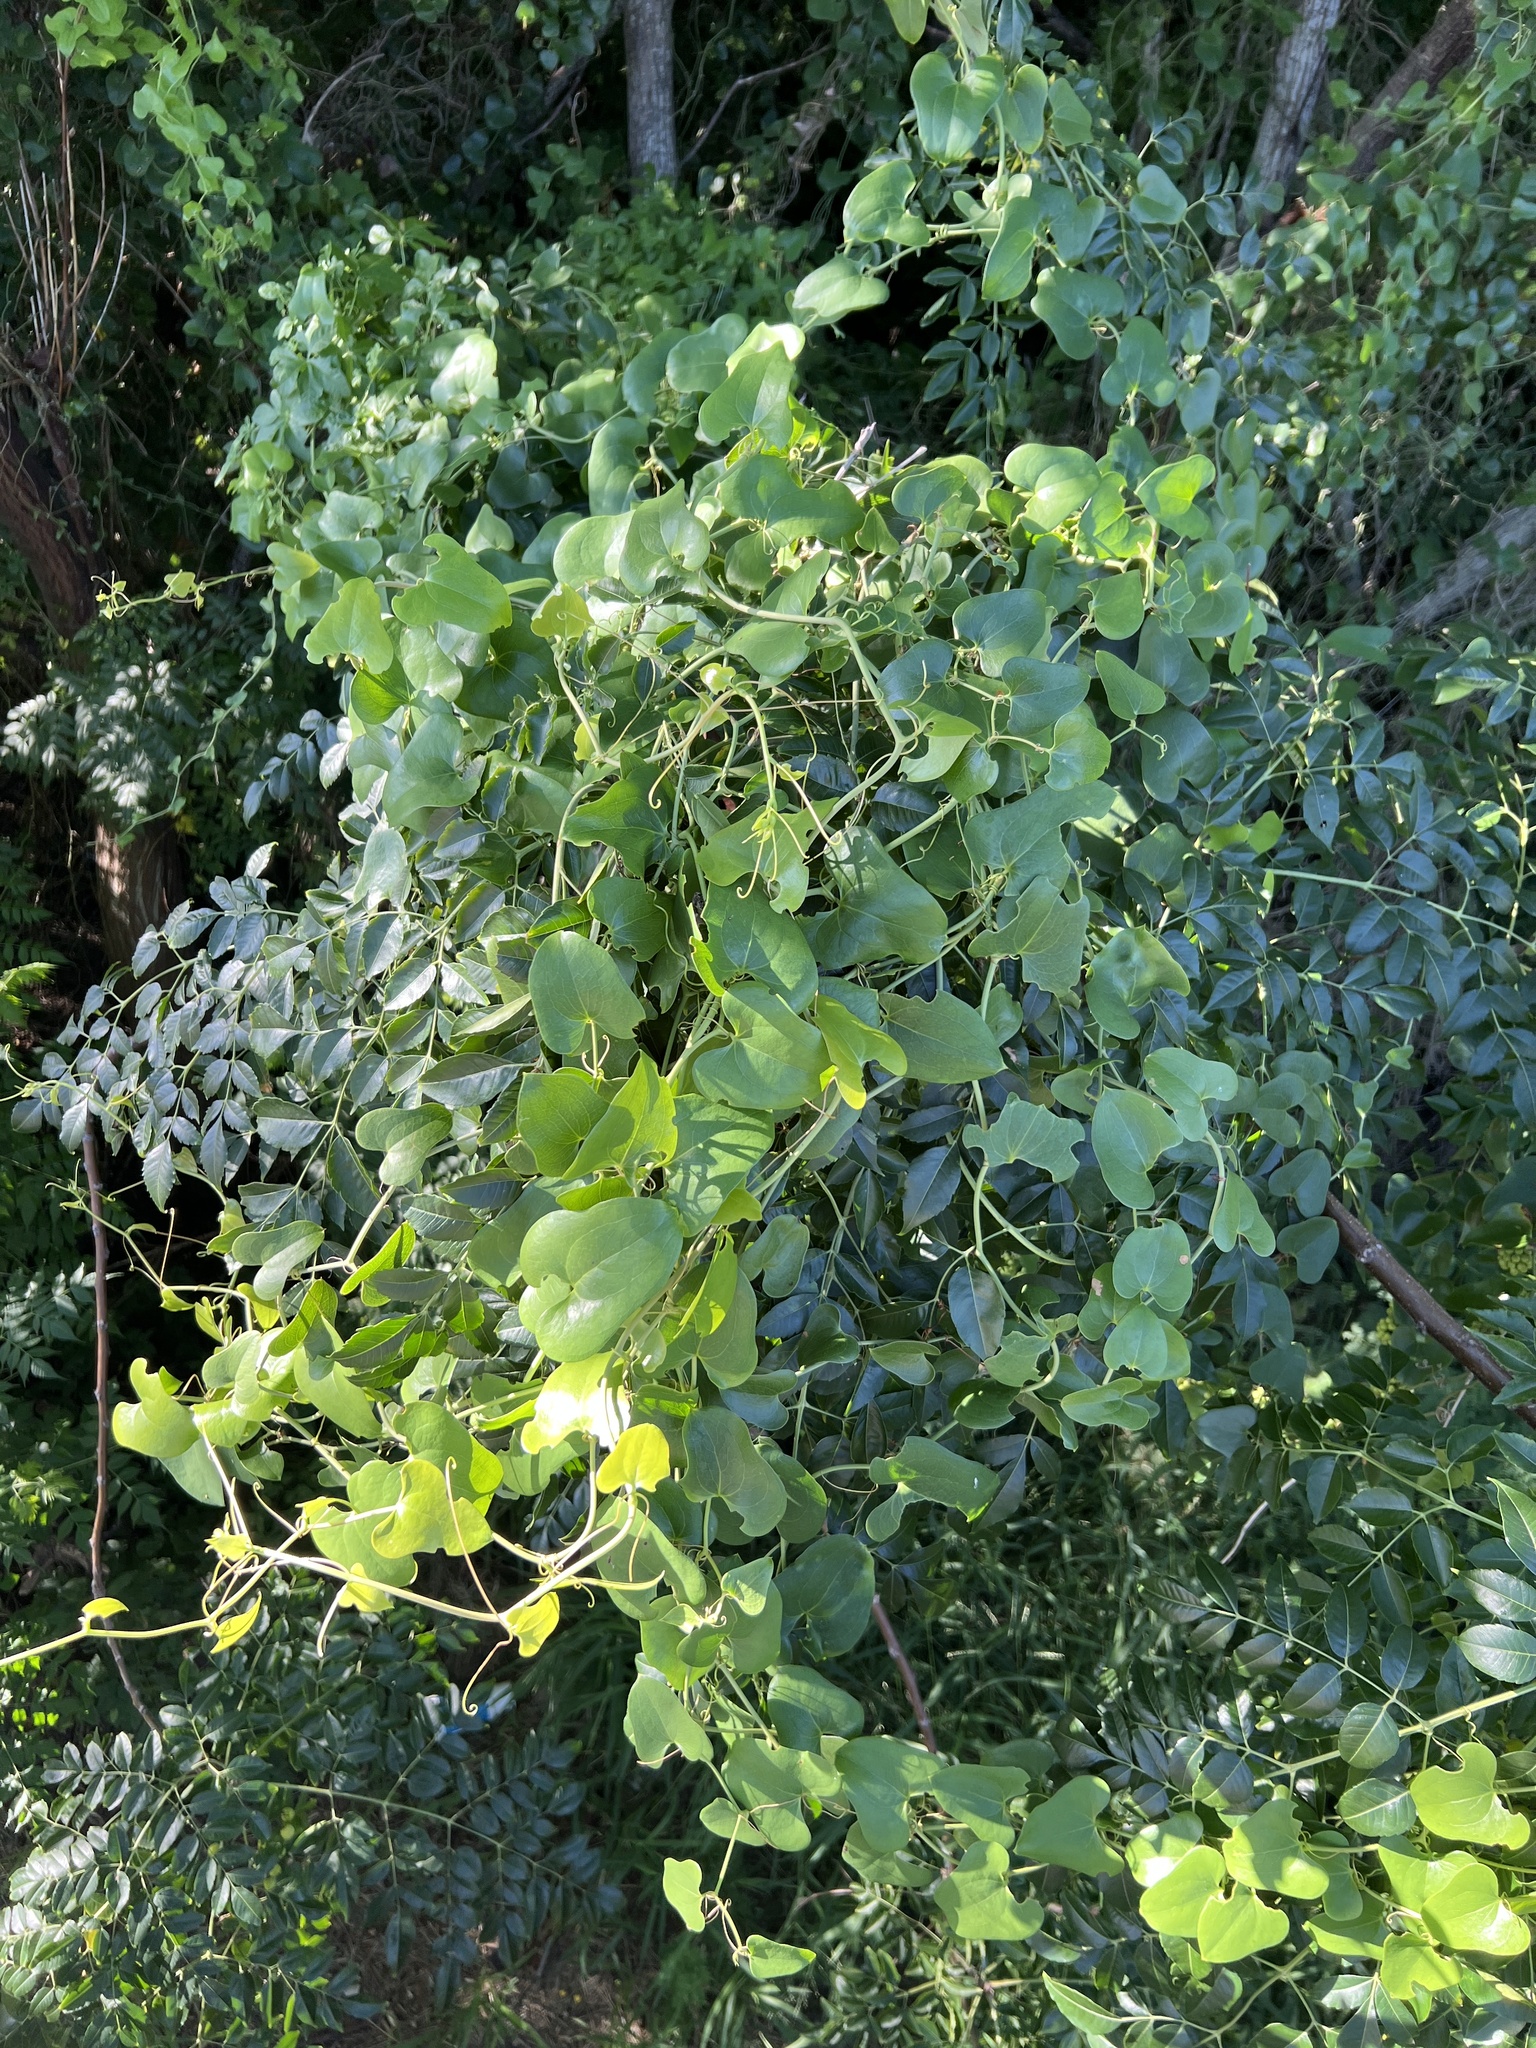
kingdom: Plantae
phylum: Tracheophyta
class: Liliopsida
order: Liliales
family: Smilacaceae
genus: Smilax
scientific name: Smilax bona-nox
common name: Catbrier
